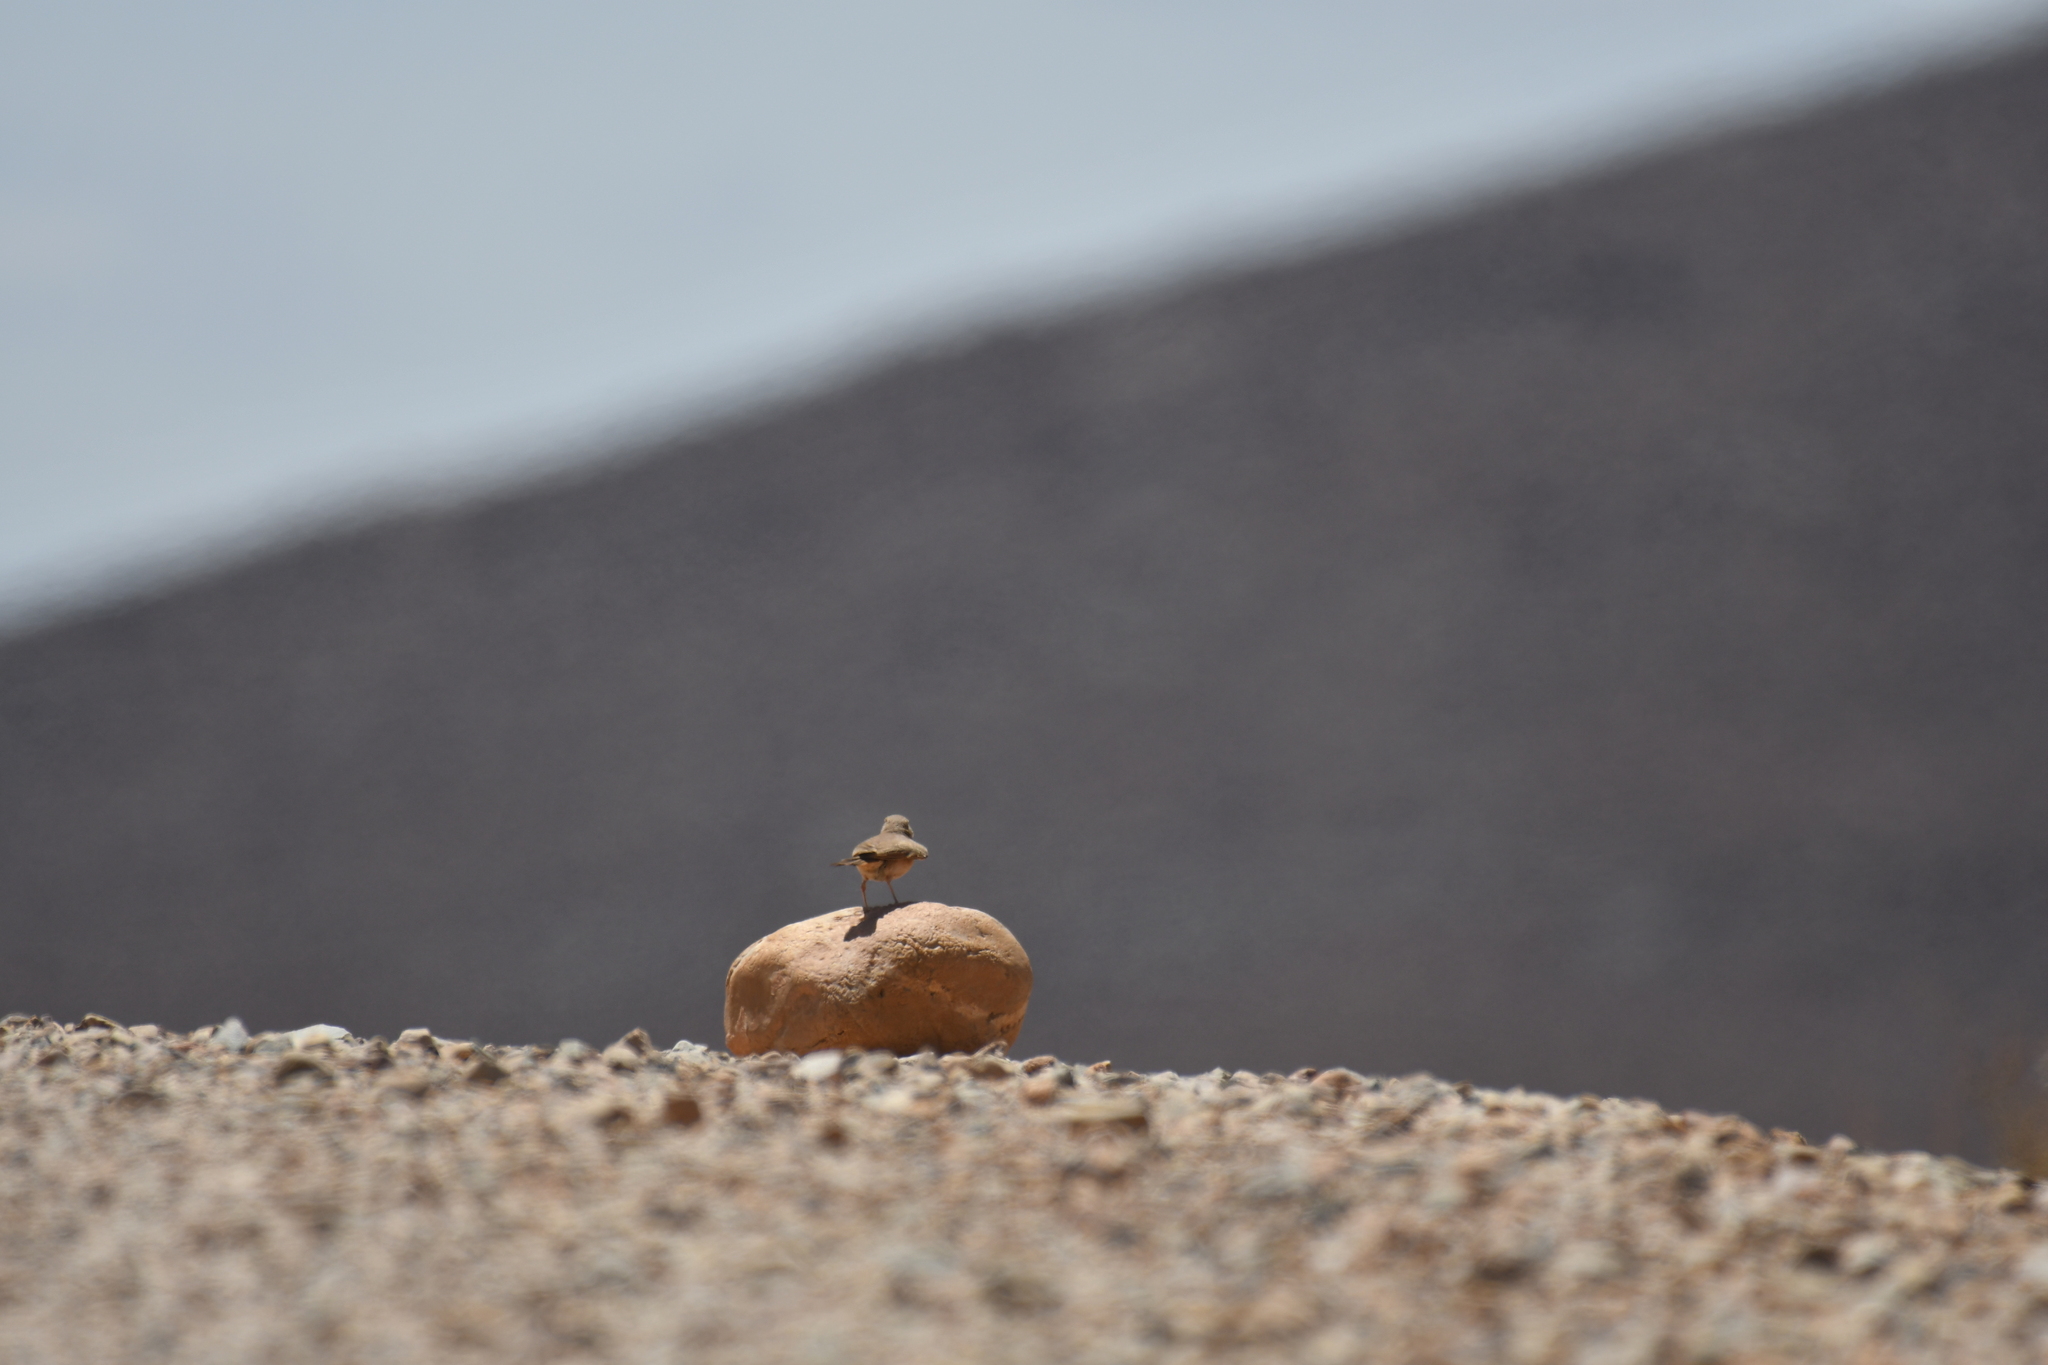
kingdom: Animalia
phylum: Chordata
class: Aves
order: Passeriformes
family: Alaudidae
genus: Ammomanes
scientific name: Ammomanes deserti
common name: Desert lark
